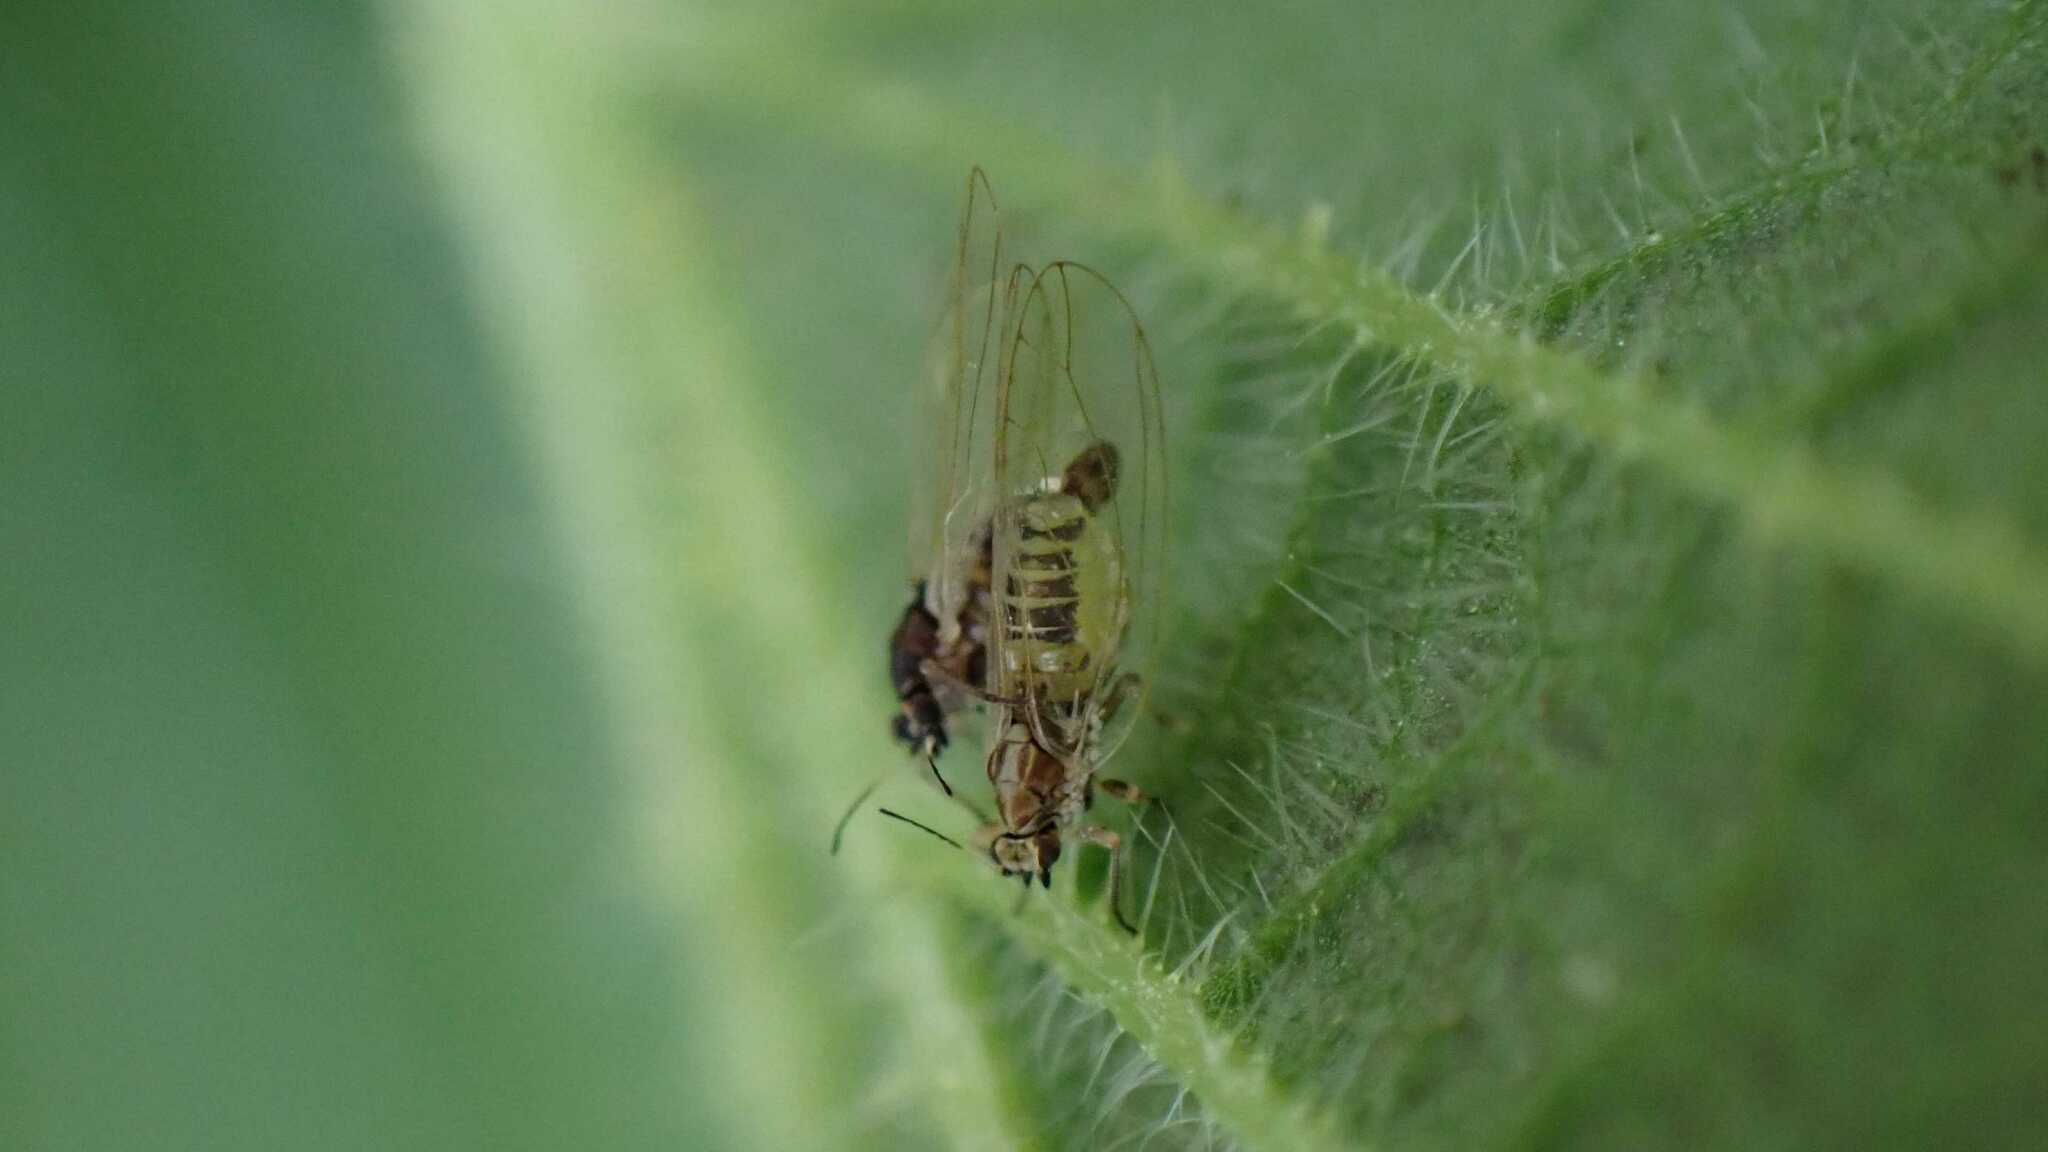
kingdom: Animalia
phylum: Arthropoda
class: Insecta
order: Hemiptera
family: Triozidae
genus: Trioza
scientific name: Trioza urticae
